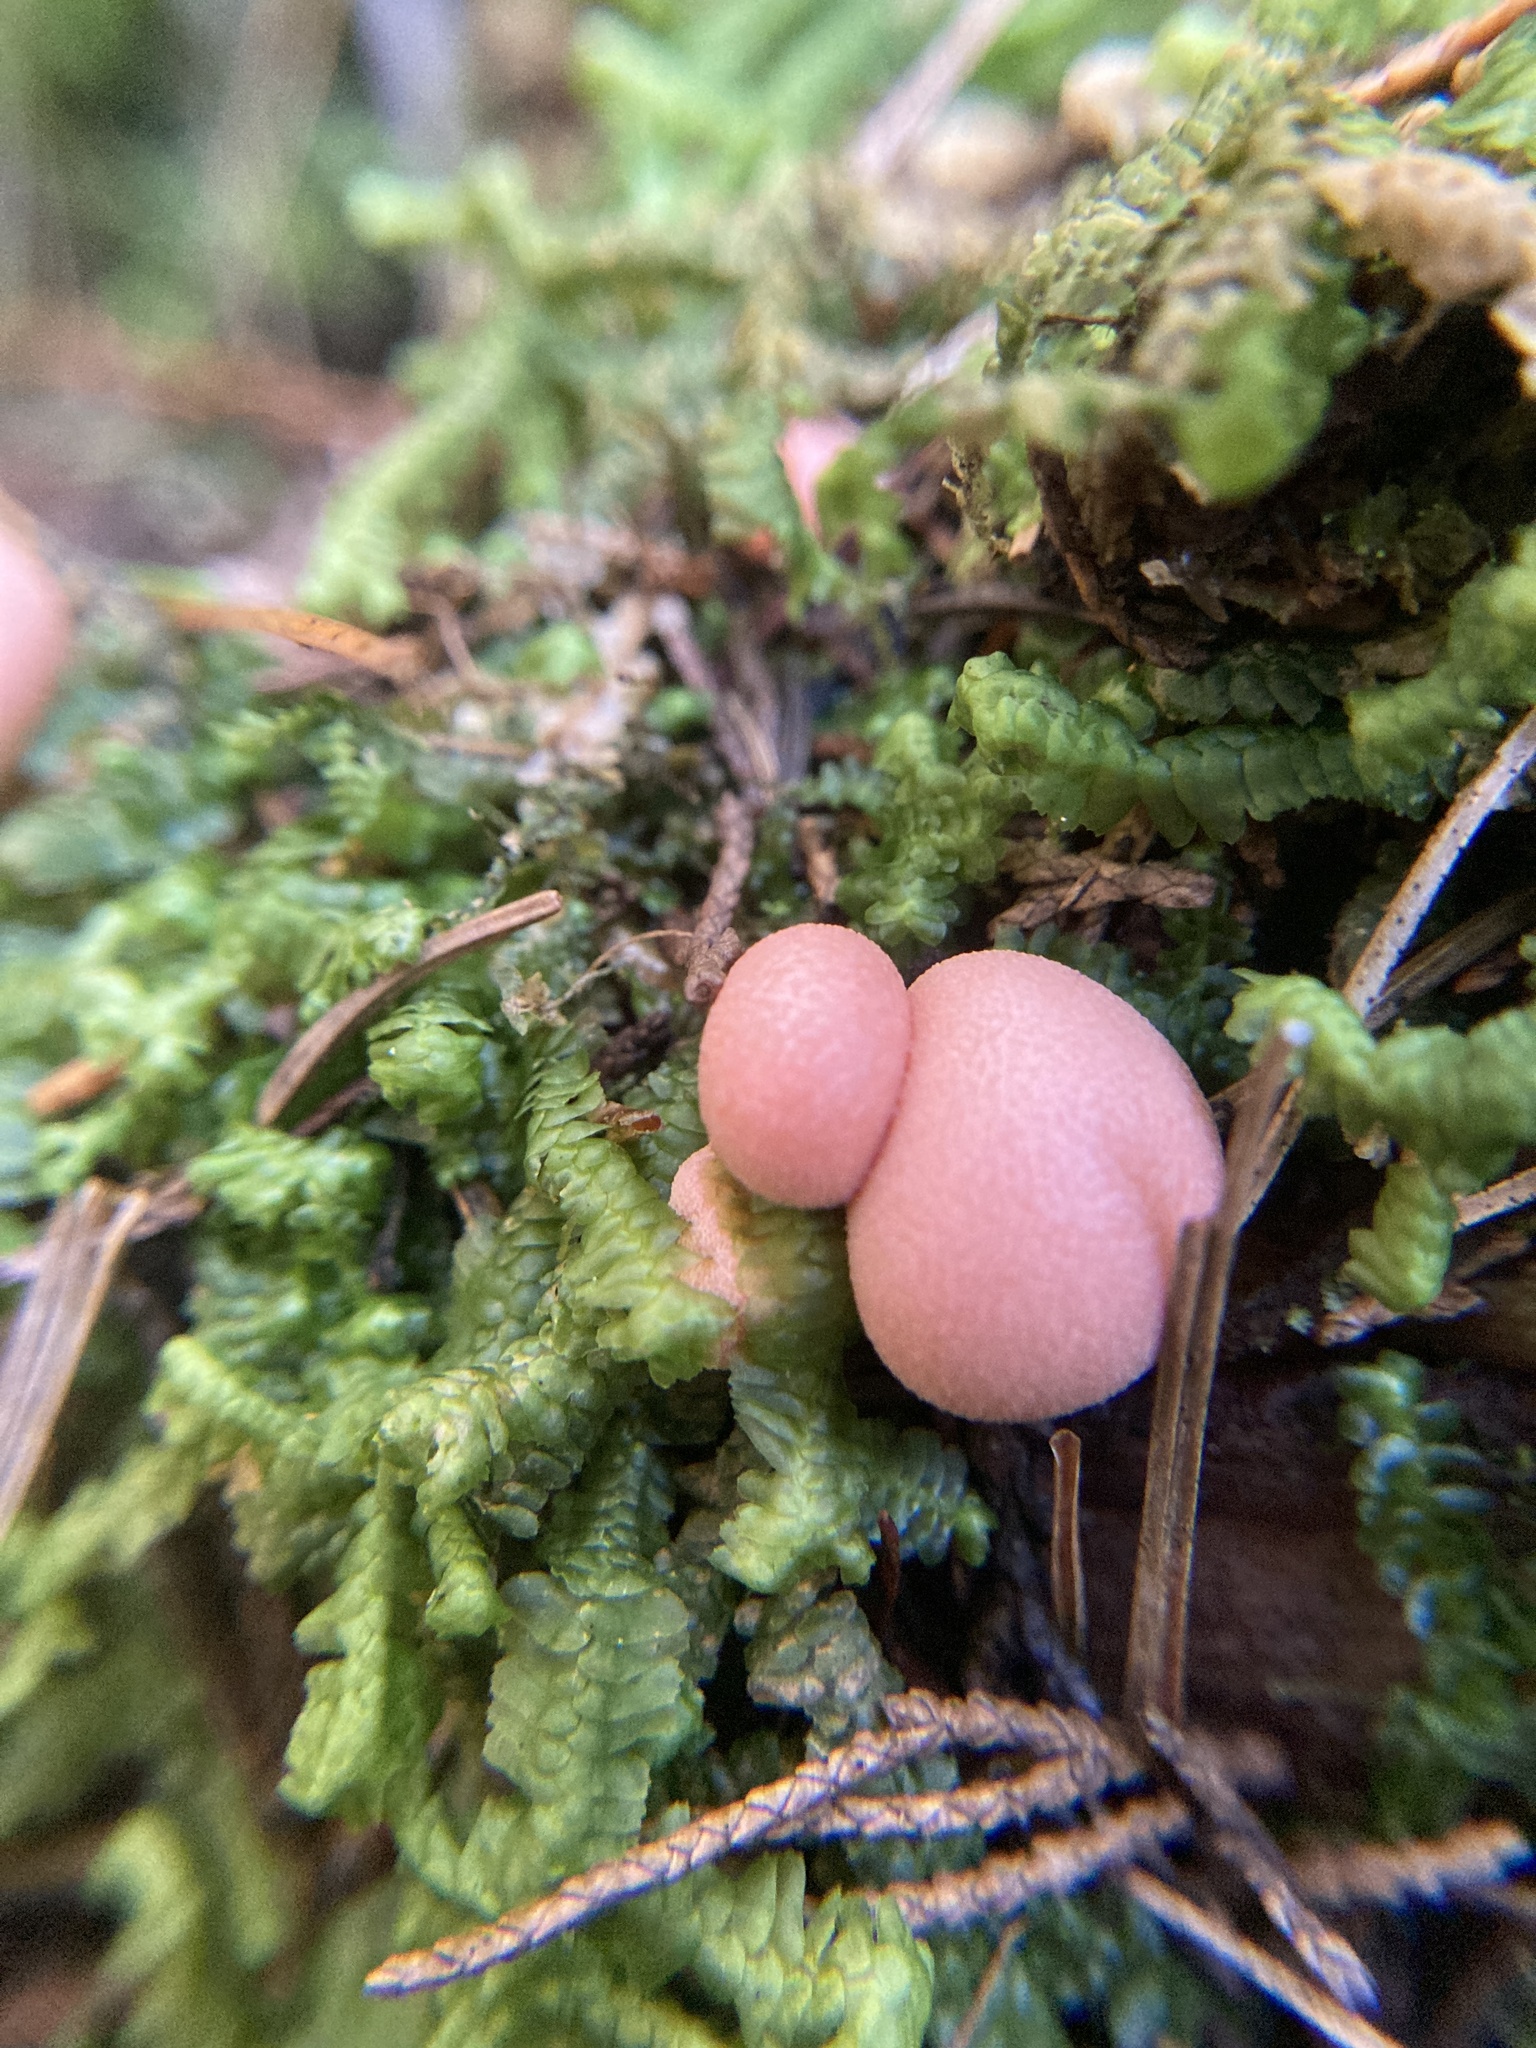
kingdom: Protozoa
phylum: Mycetozoa
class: Myxomycetes
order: Cribrariales
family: Tubiferaceae
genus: Lycogala
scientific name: Lycogala epidendrum
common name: Wolf's milk
